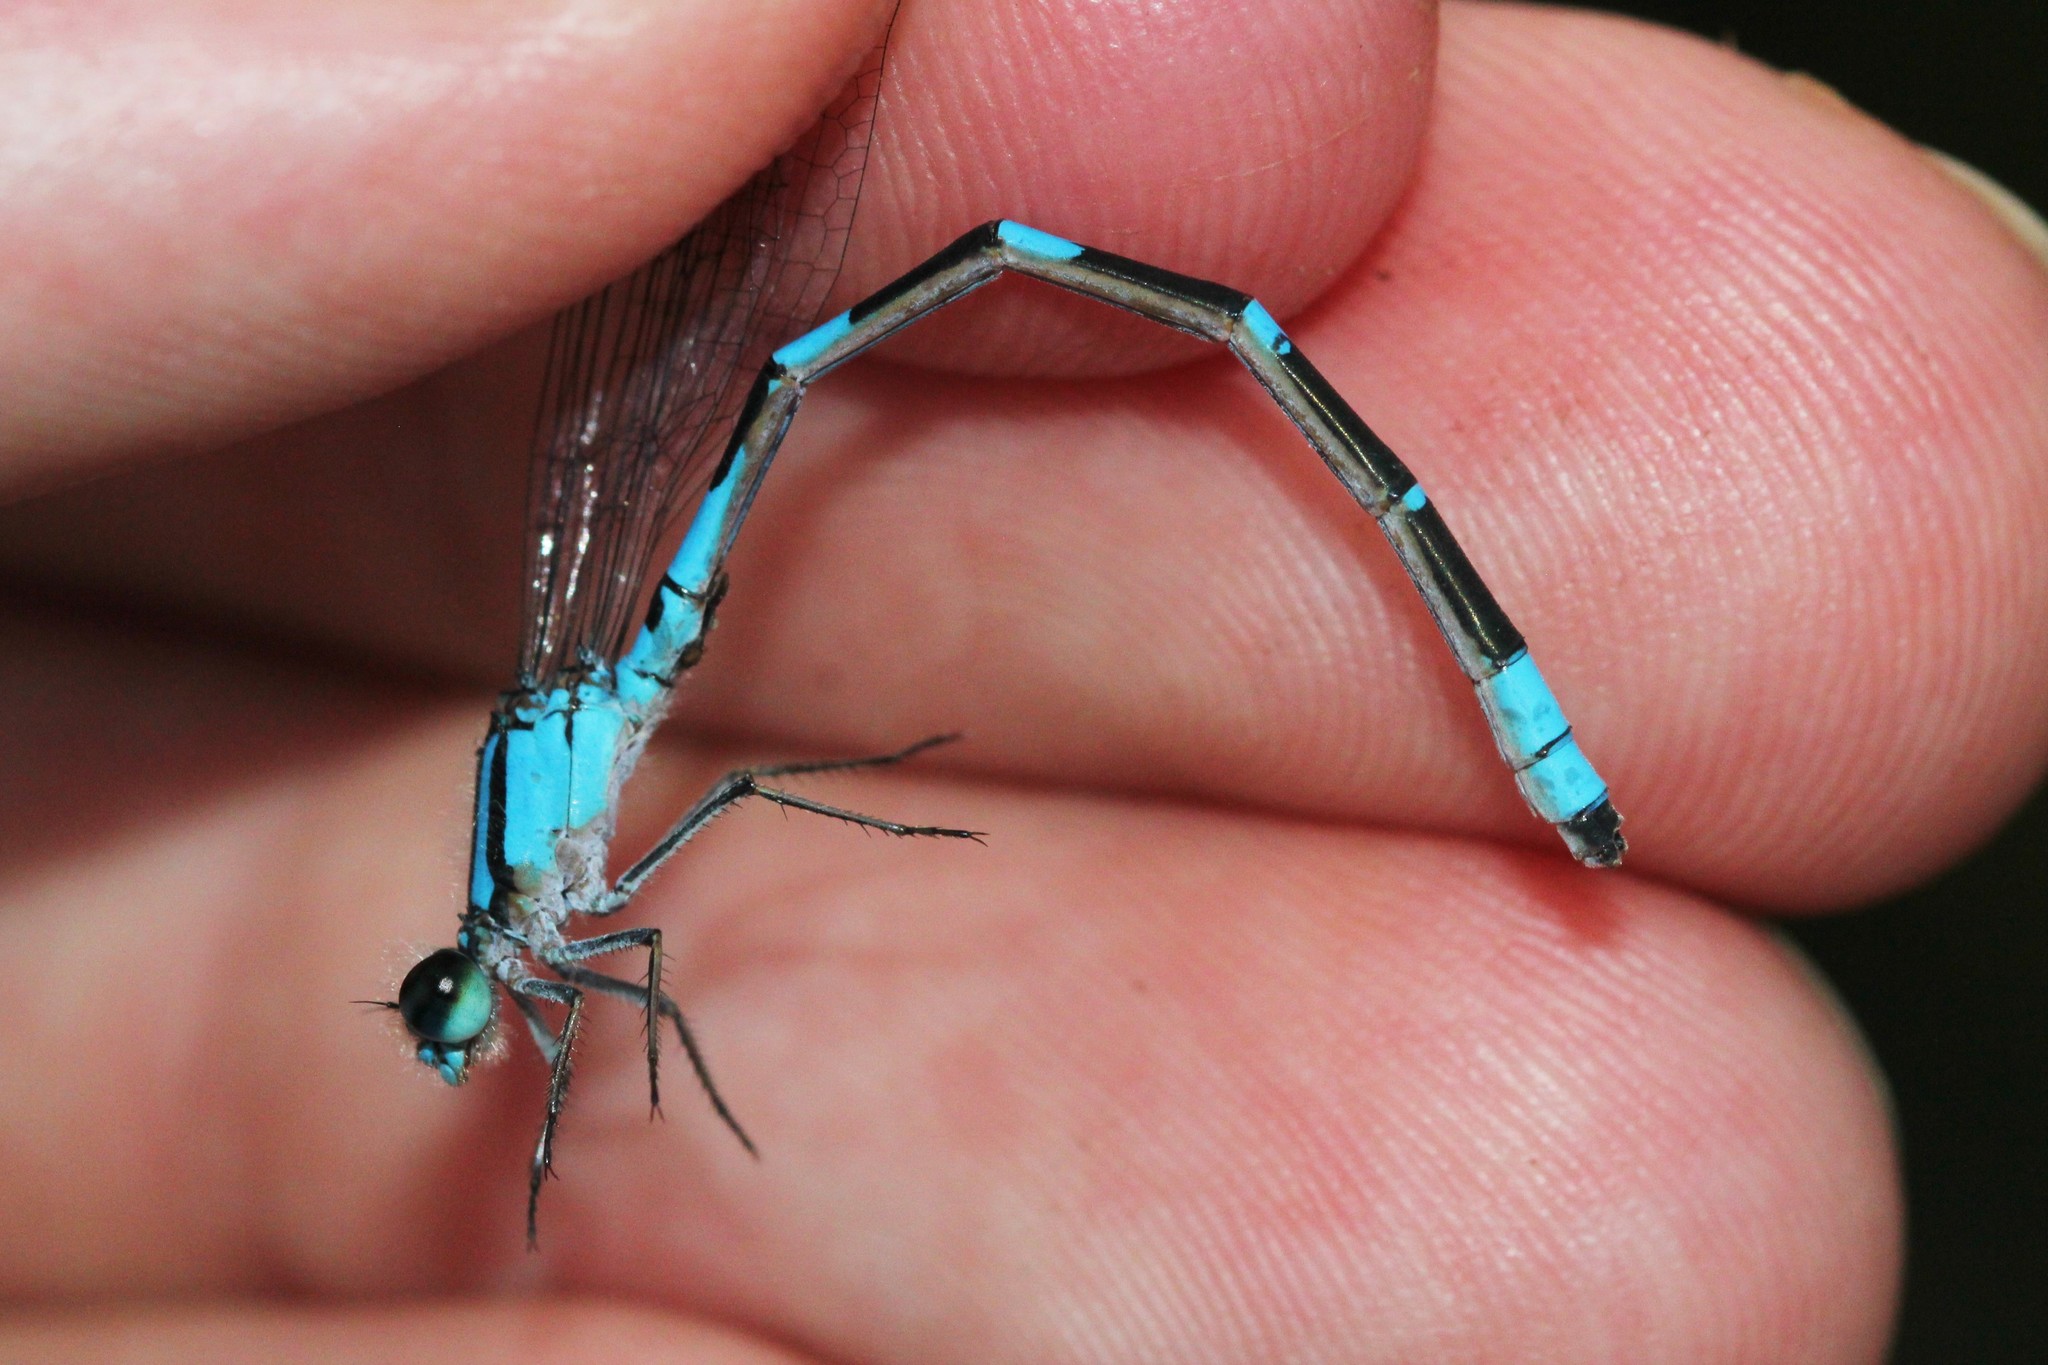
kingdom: Animalia
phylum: Arthropoda
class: Insecta
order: Odonata
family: Coenagrionidae
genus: Enallagma
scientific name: Enallagma carunculatum
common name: Tule bluet
